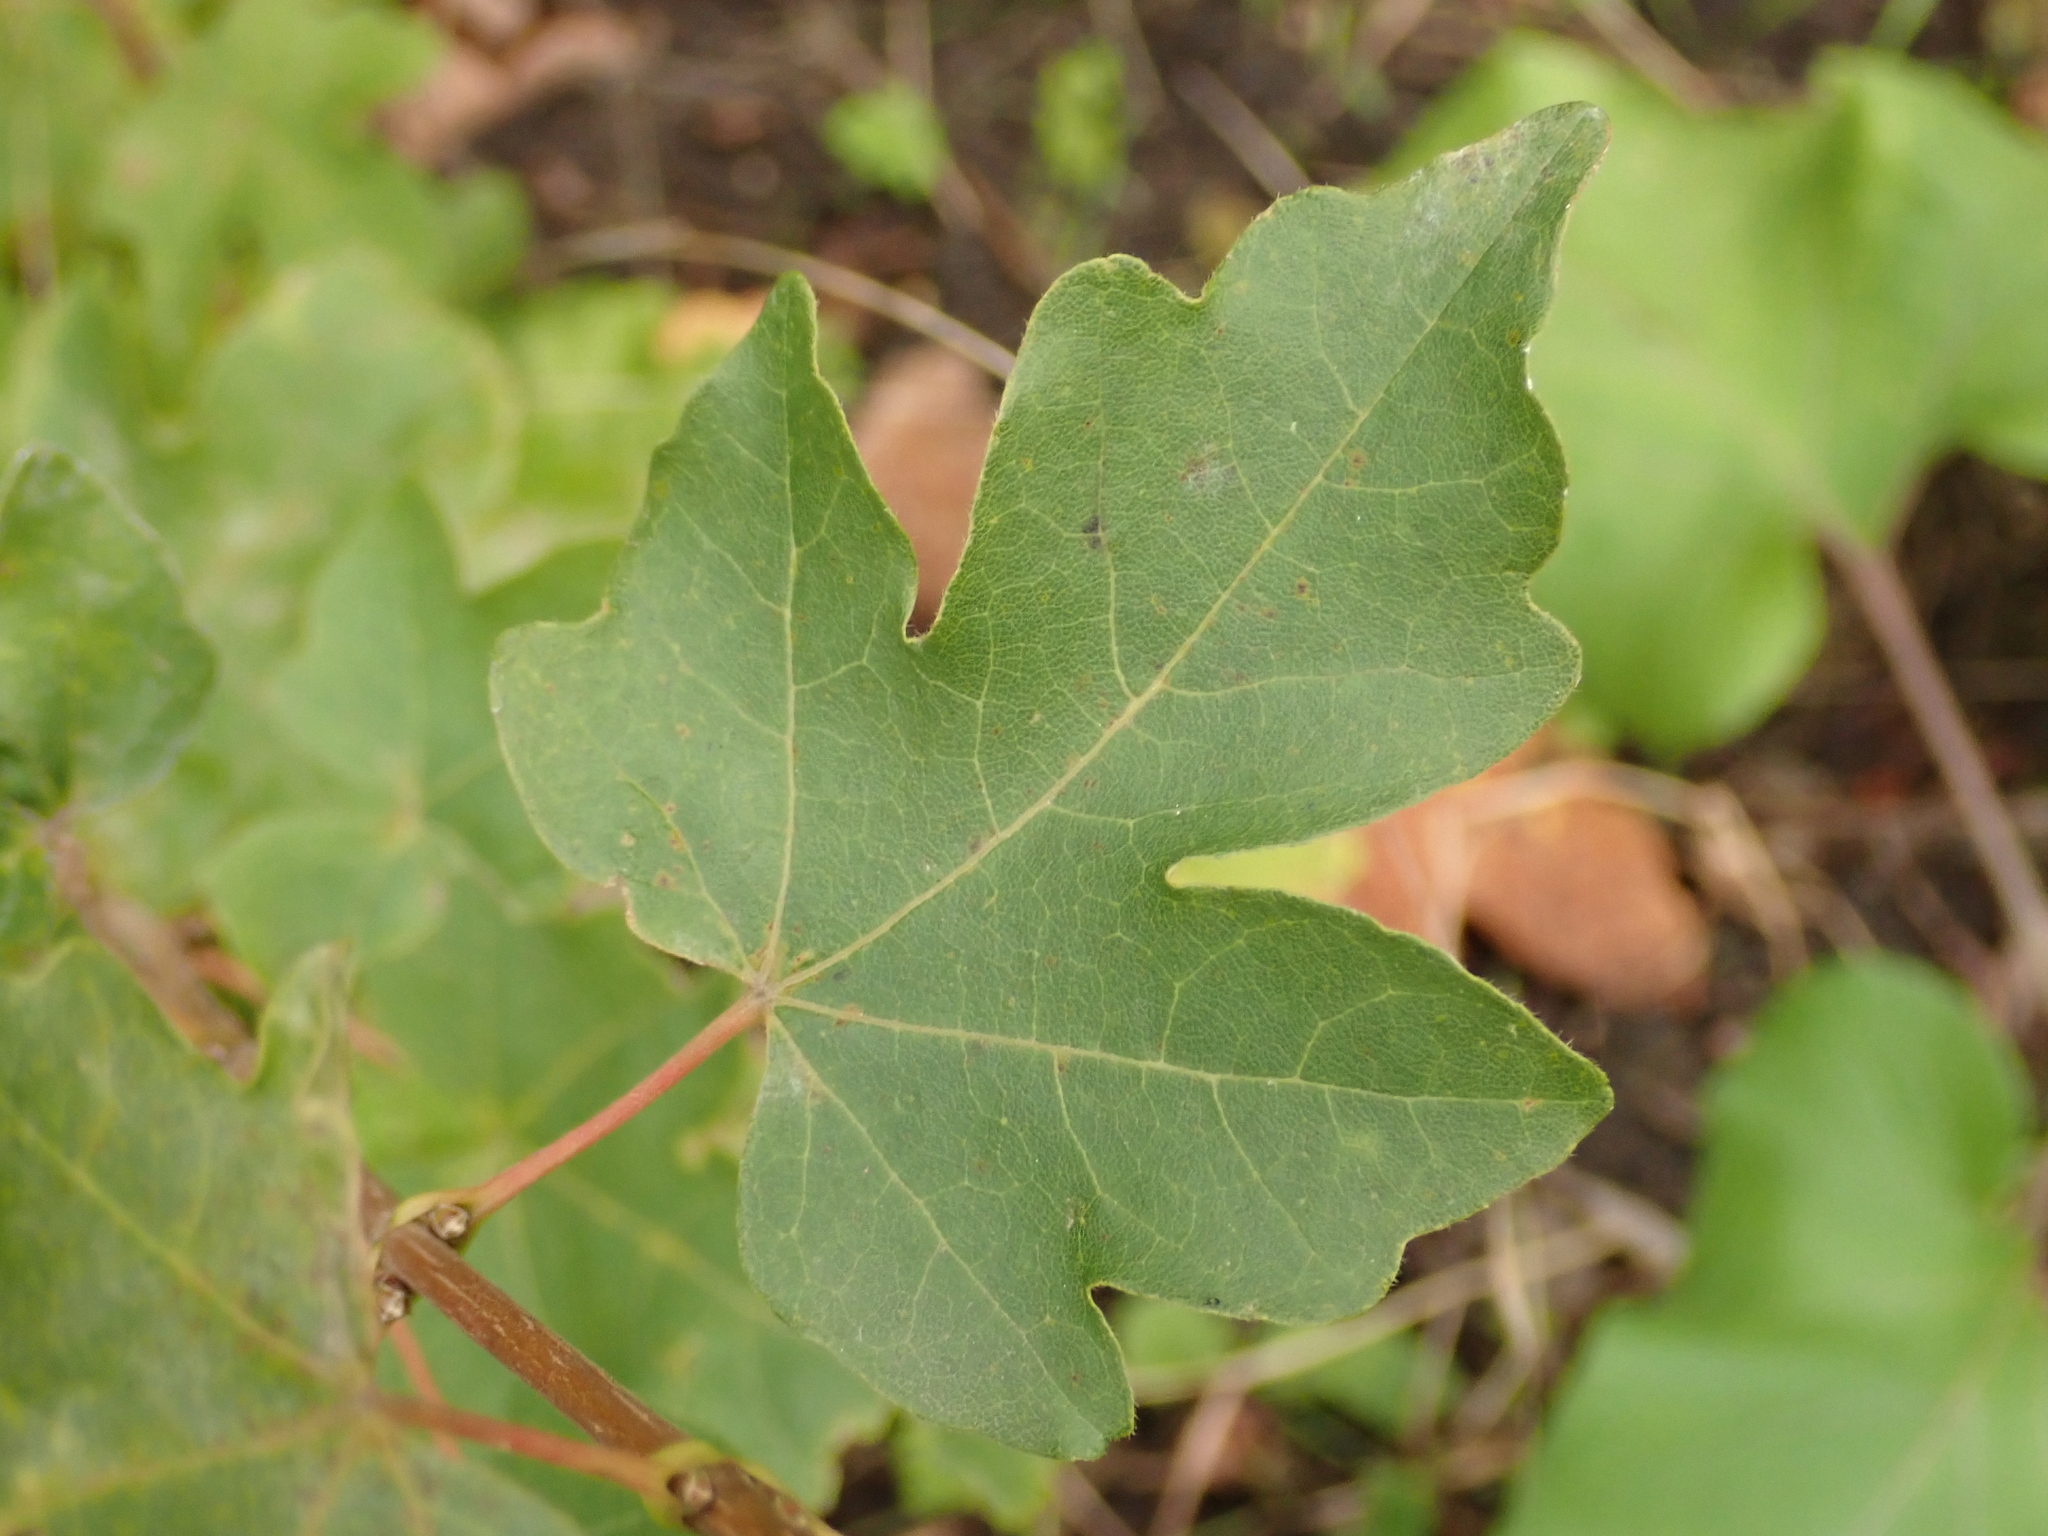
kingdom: Plantae
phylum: Tracheophyta
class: Magnoliopsida
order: Sapindales
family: Sapindaceae
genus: Acer
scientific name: Acer campestre
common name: Field maple
